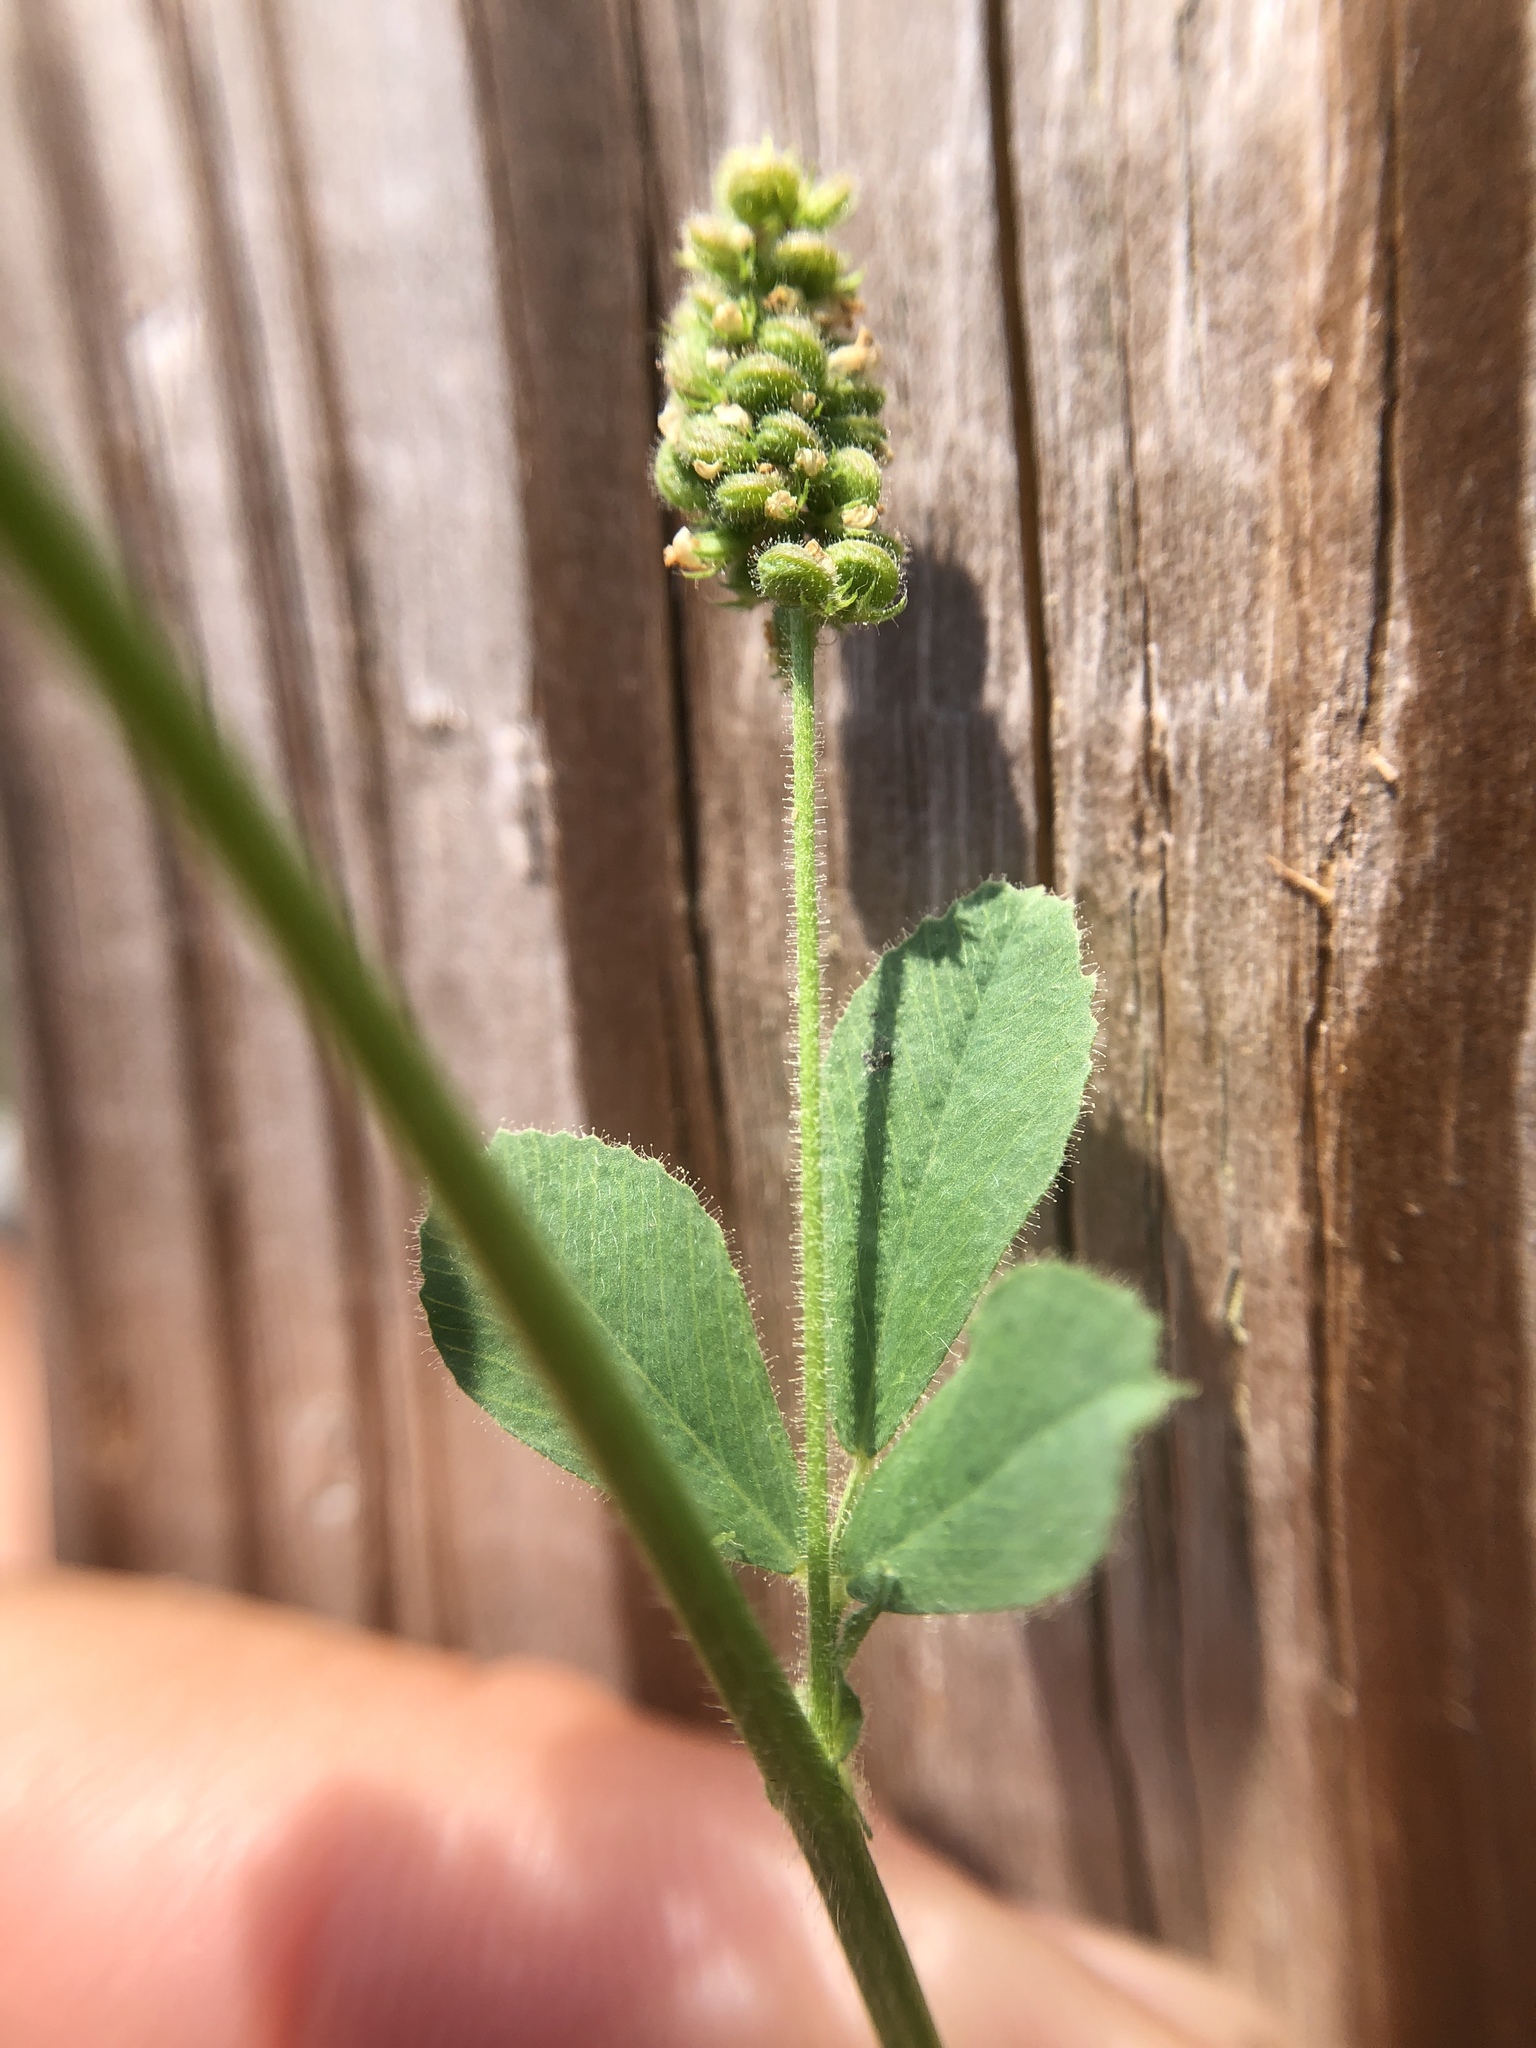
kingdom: Plantae
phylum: Tracheophyta
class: Magnoliopsida
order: Fabales
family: Fabaceae
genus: Medicago
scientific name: Medicago lupulina
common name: Black medick
